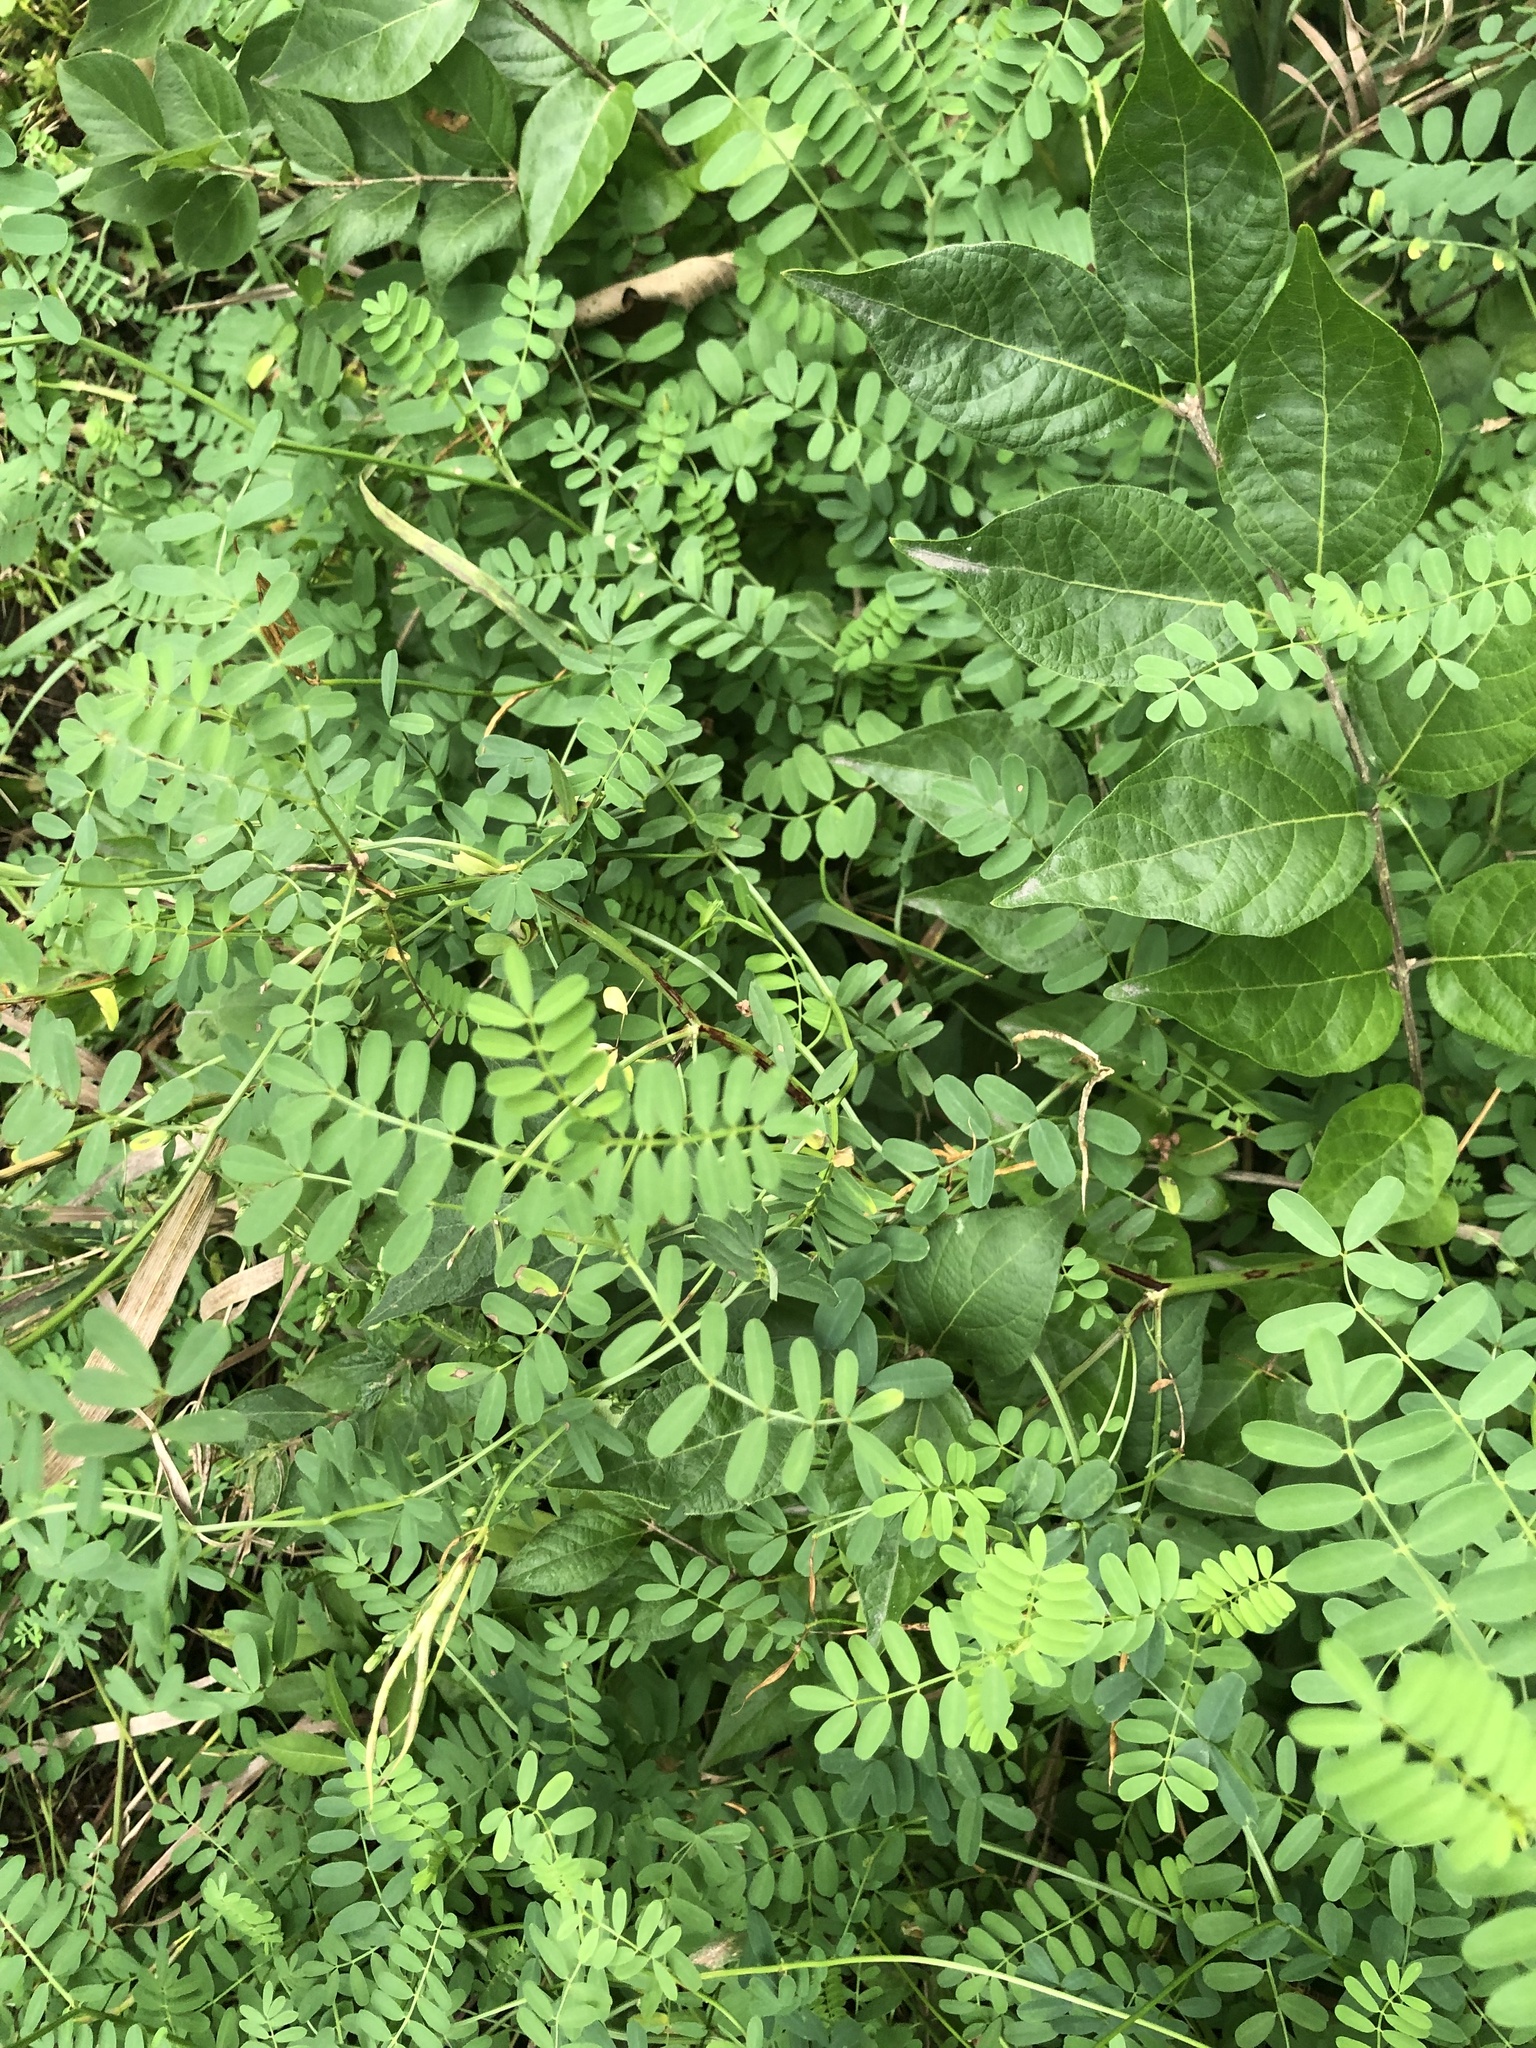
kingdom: Plantae
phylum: Tracheophyta
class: Magnoliopsida
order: Fabales
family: Fabaceae
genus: Coronilla
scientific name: Coronilla varia
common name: Crownvetch
